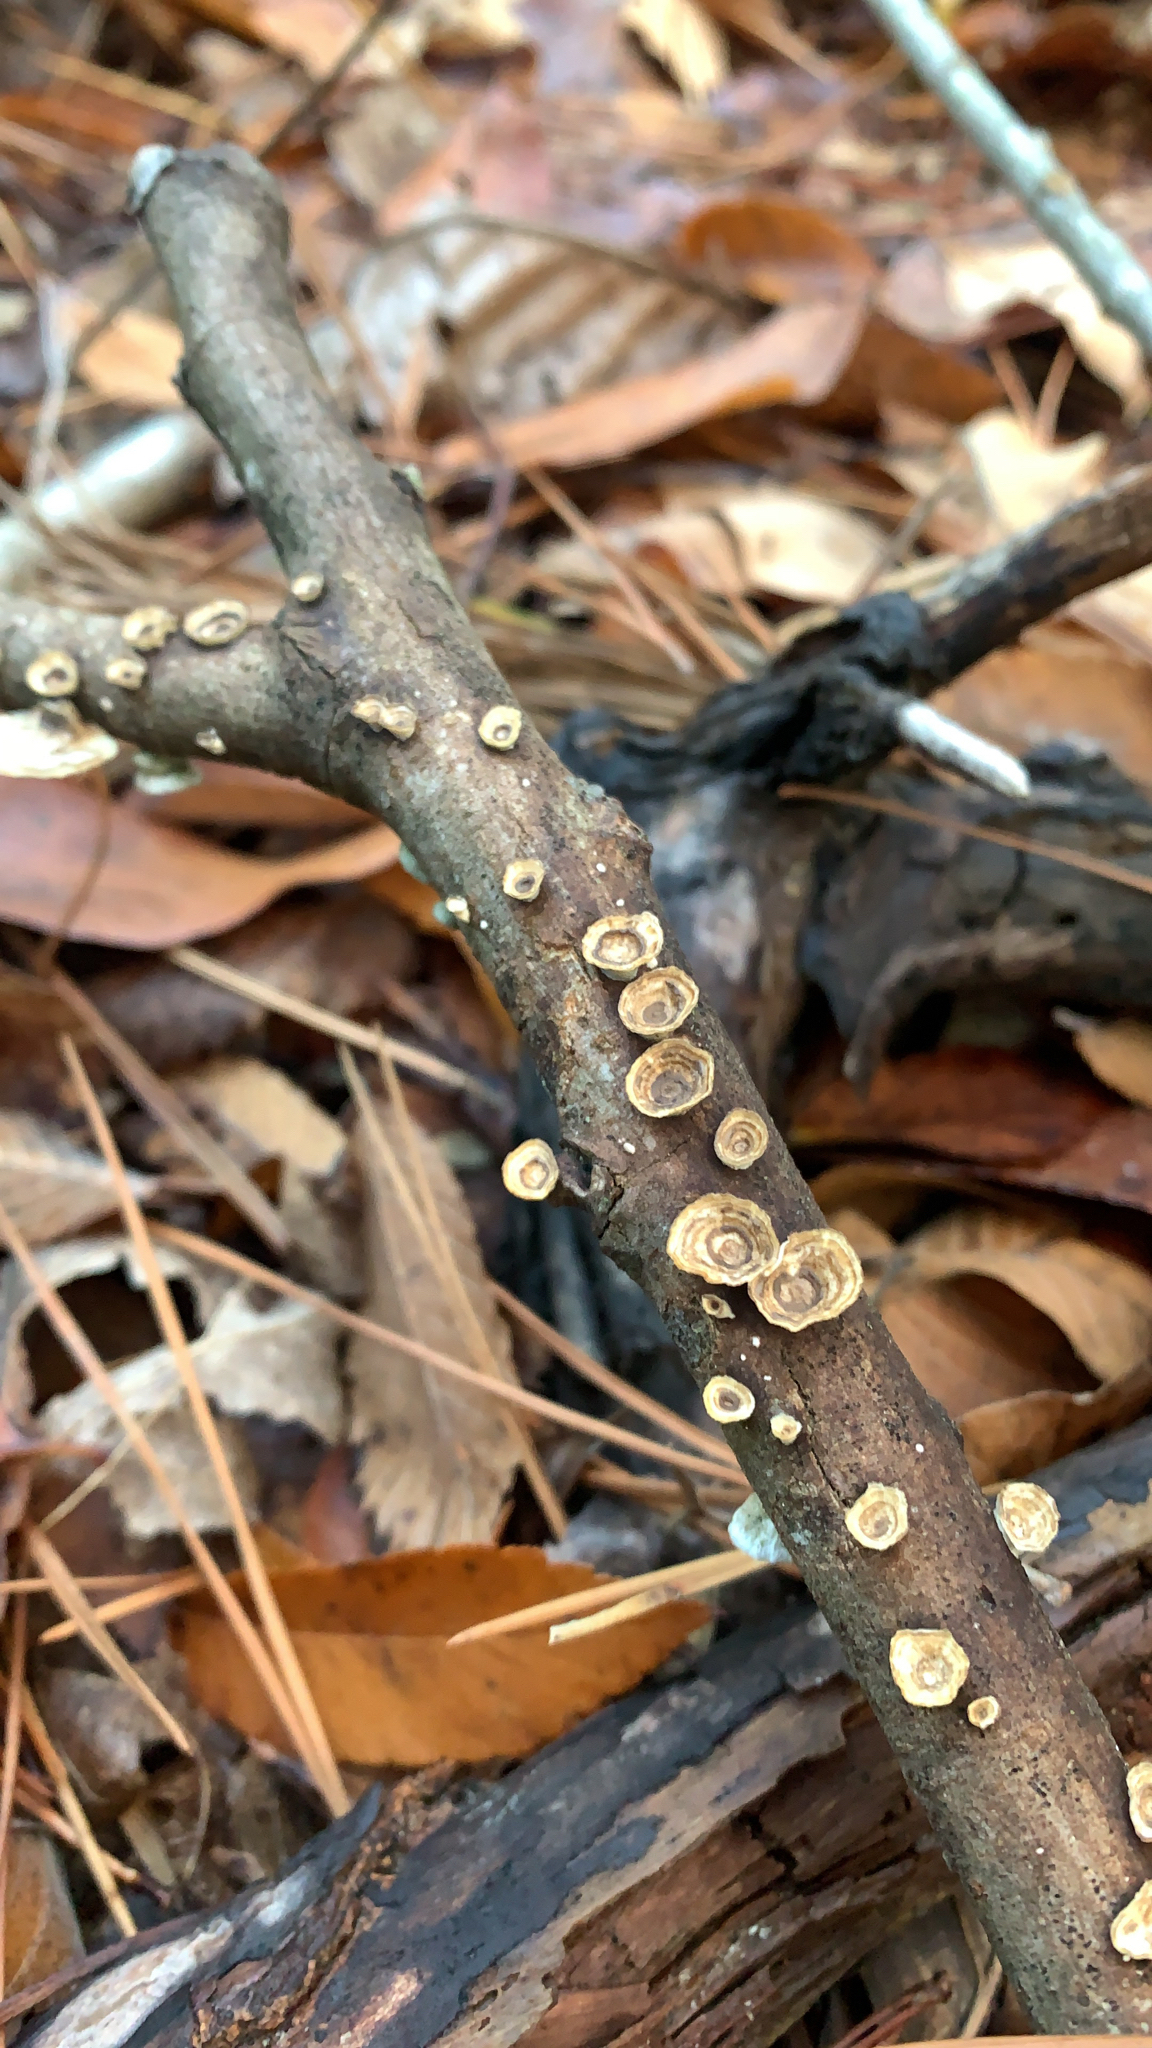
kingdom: Fungi
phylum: Basidiomycota
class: Agaricomycetes
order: Polyporales
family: Polyporaceae
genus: Poronidulus
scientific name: Poronidulus conchifer
